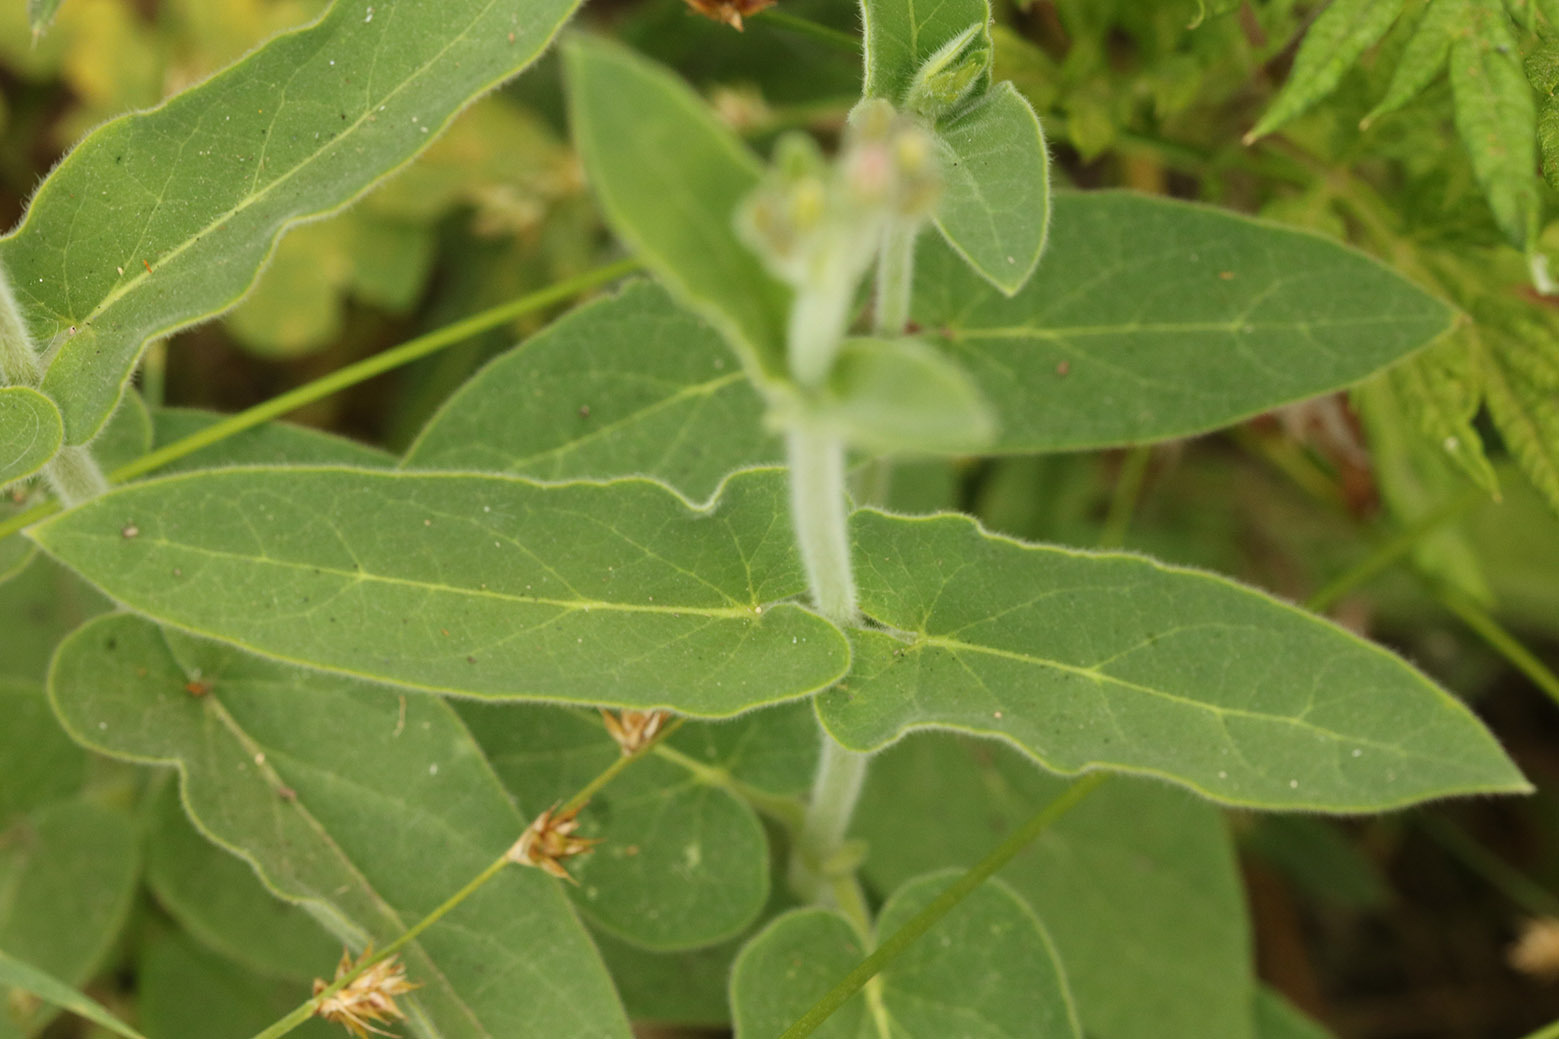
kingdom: Plantae
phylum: Tracheophyta
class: Magnoliopsida
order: Gentianales
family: Apocynaceae
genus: Oxypetalum
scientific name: Oxypetalum solanoides
